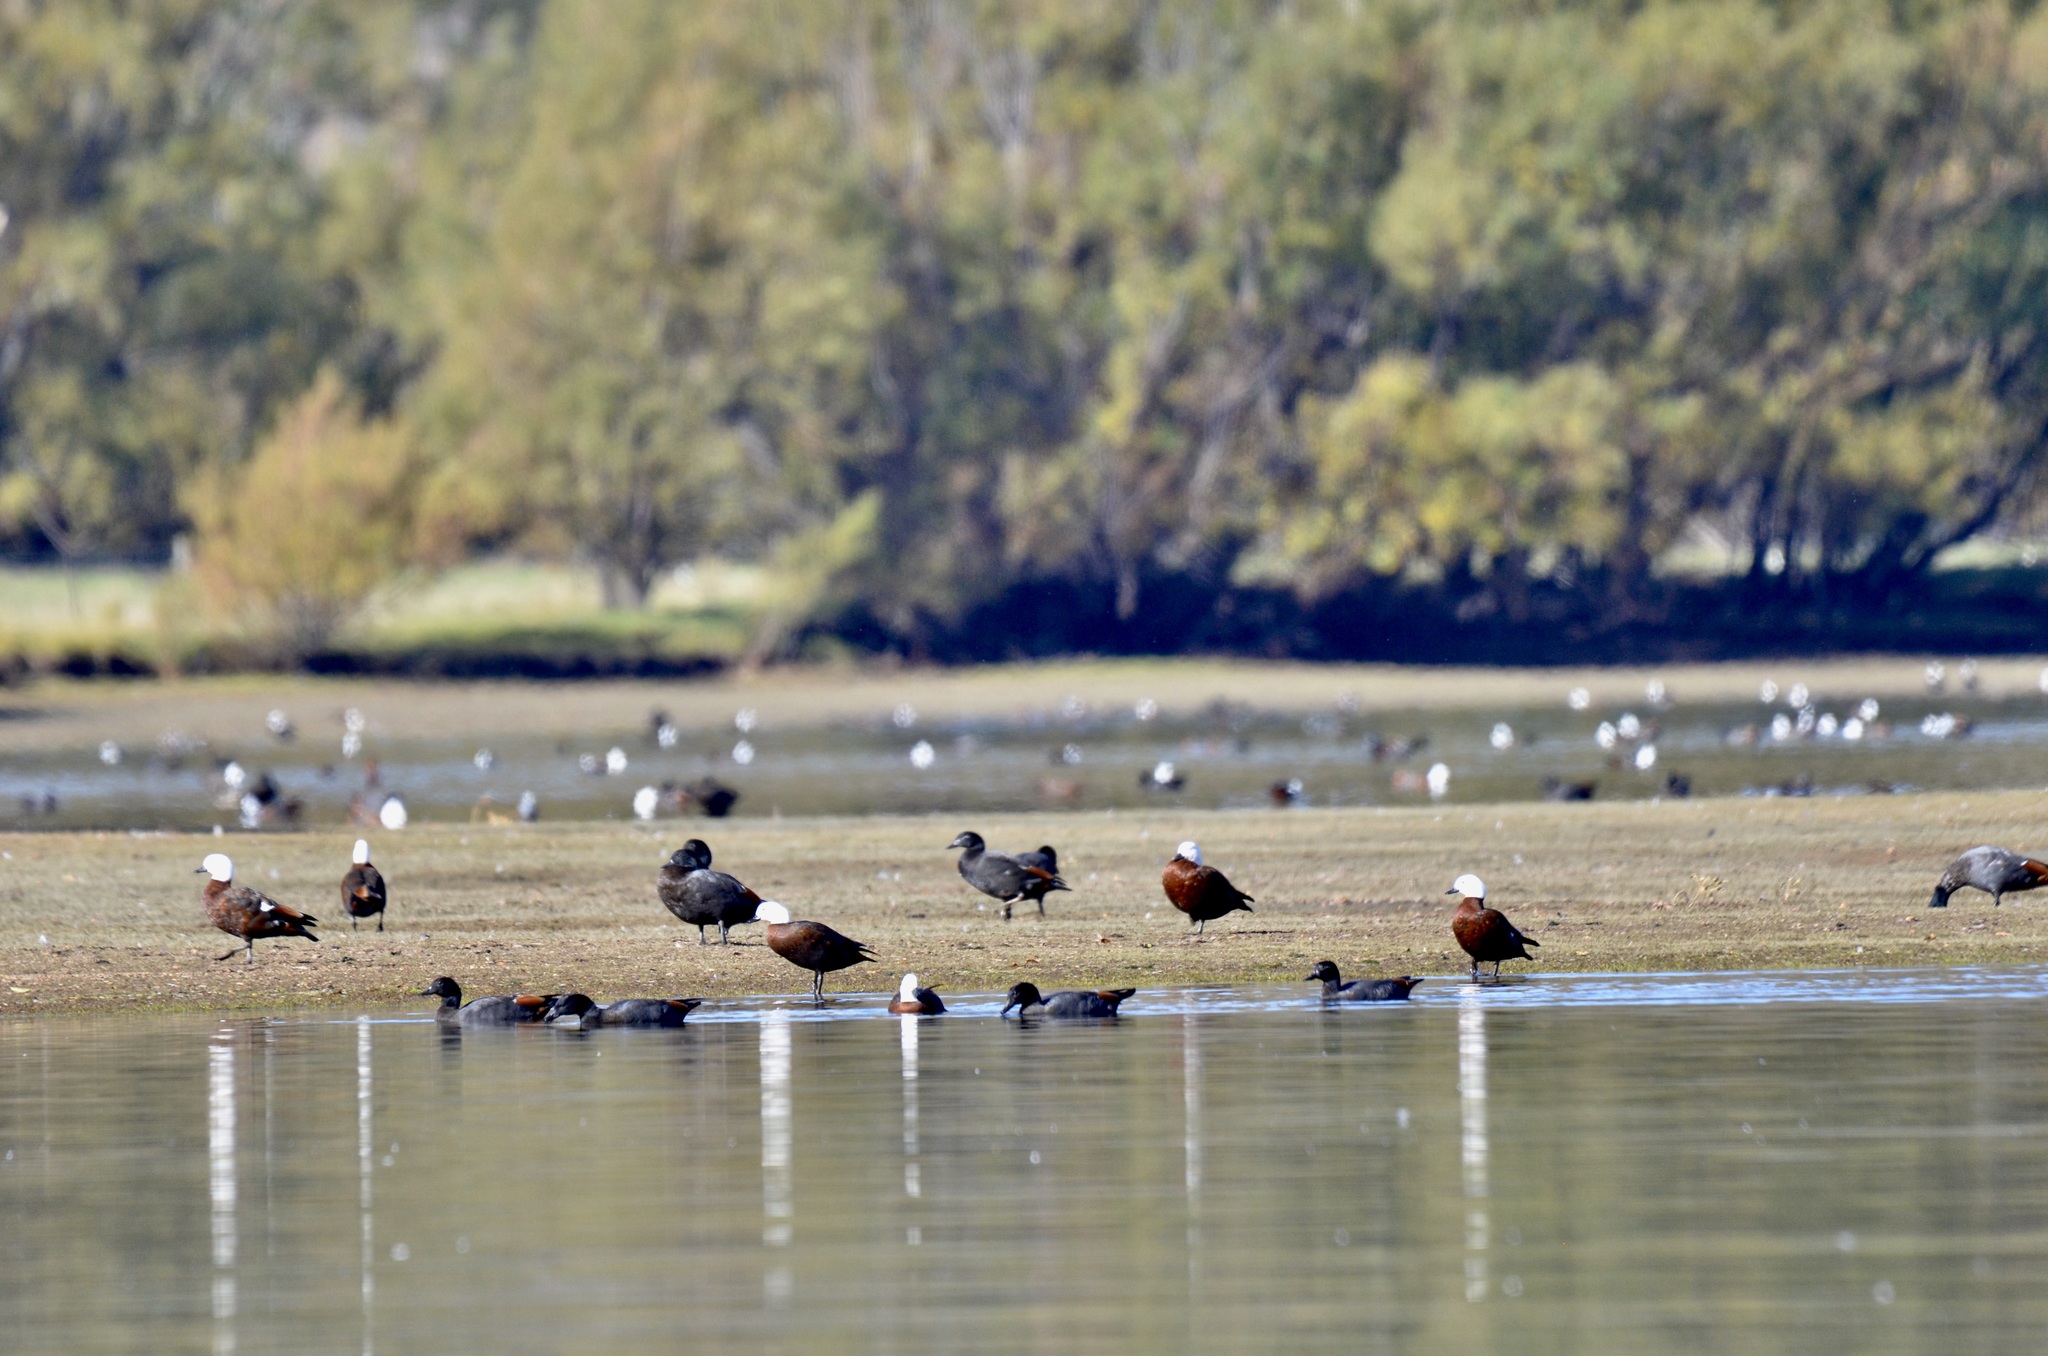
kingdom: Animalia
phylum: Chordata
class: Aves
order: Anseriformes
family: Anatidae
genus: Tadorna
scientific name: Tadorna variegata
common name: Paradise shelduck
